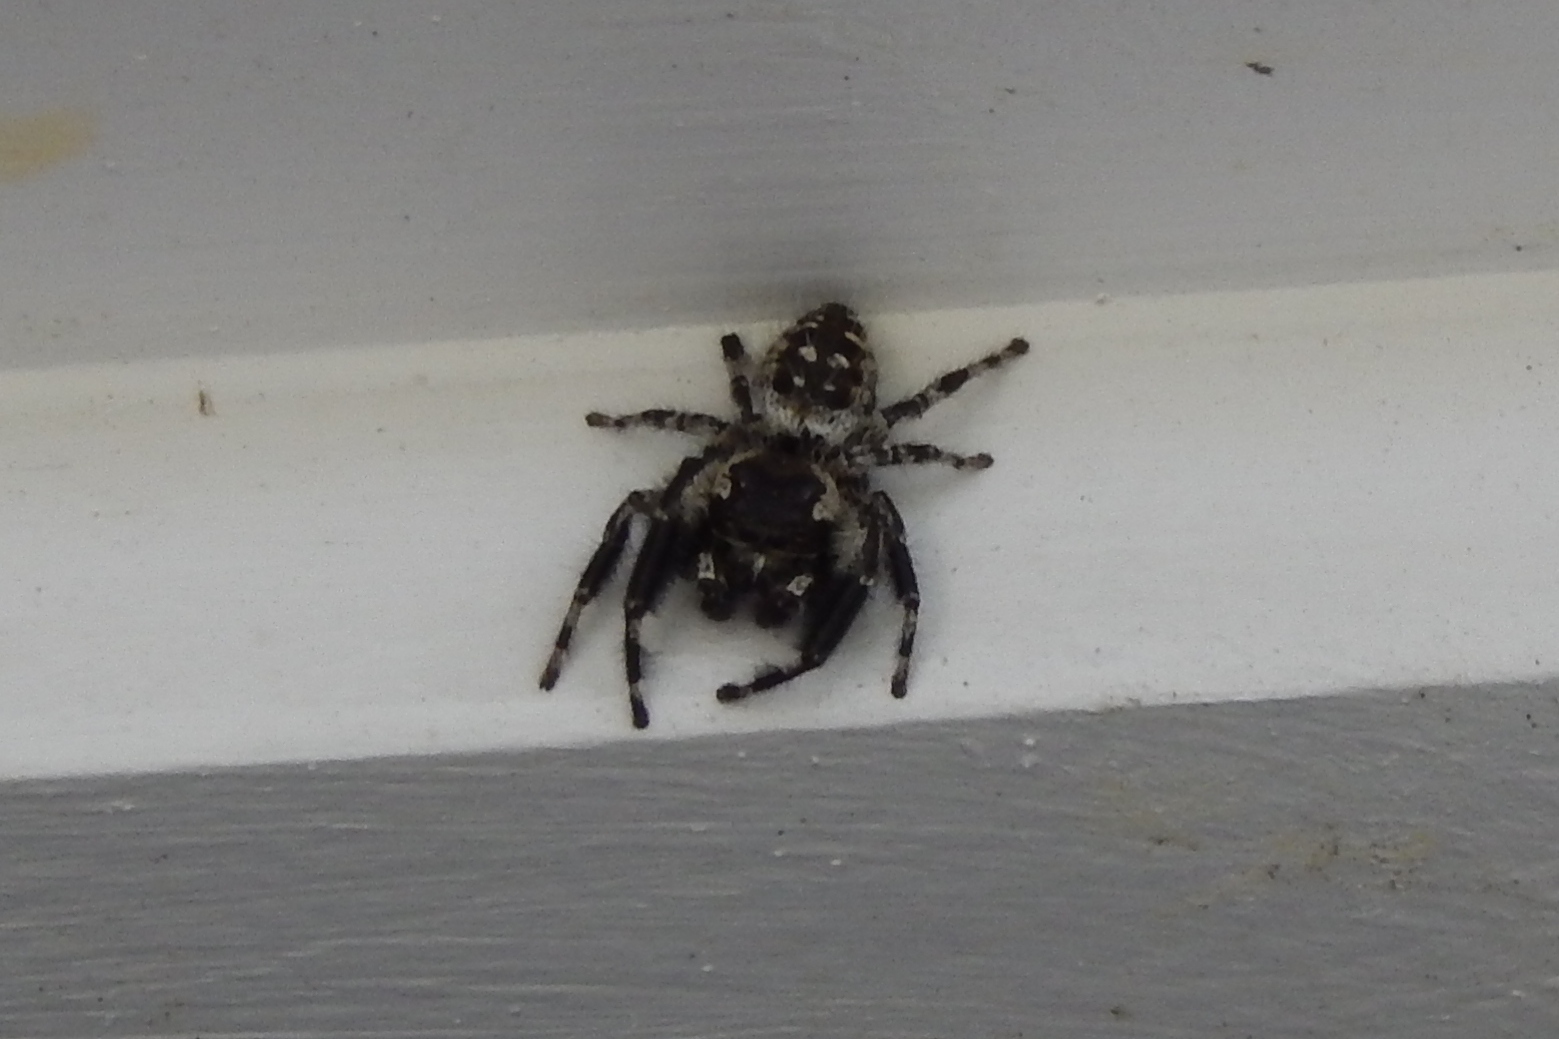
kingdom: Animalia
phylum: Arthropoda
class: Arachnida
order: Araneae
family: Salticidae
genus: Phidippus
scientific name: Phidippus otiosus
